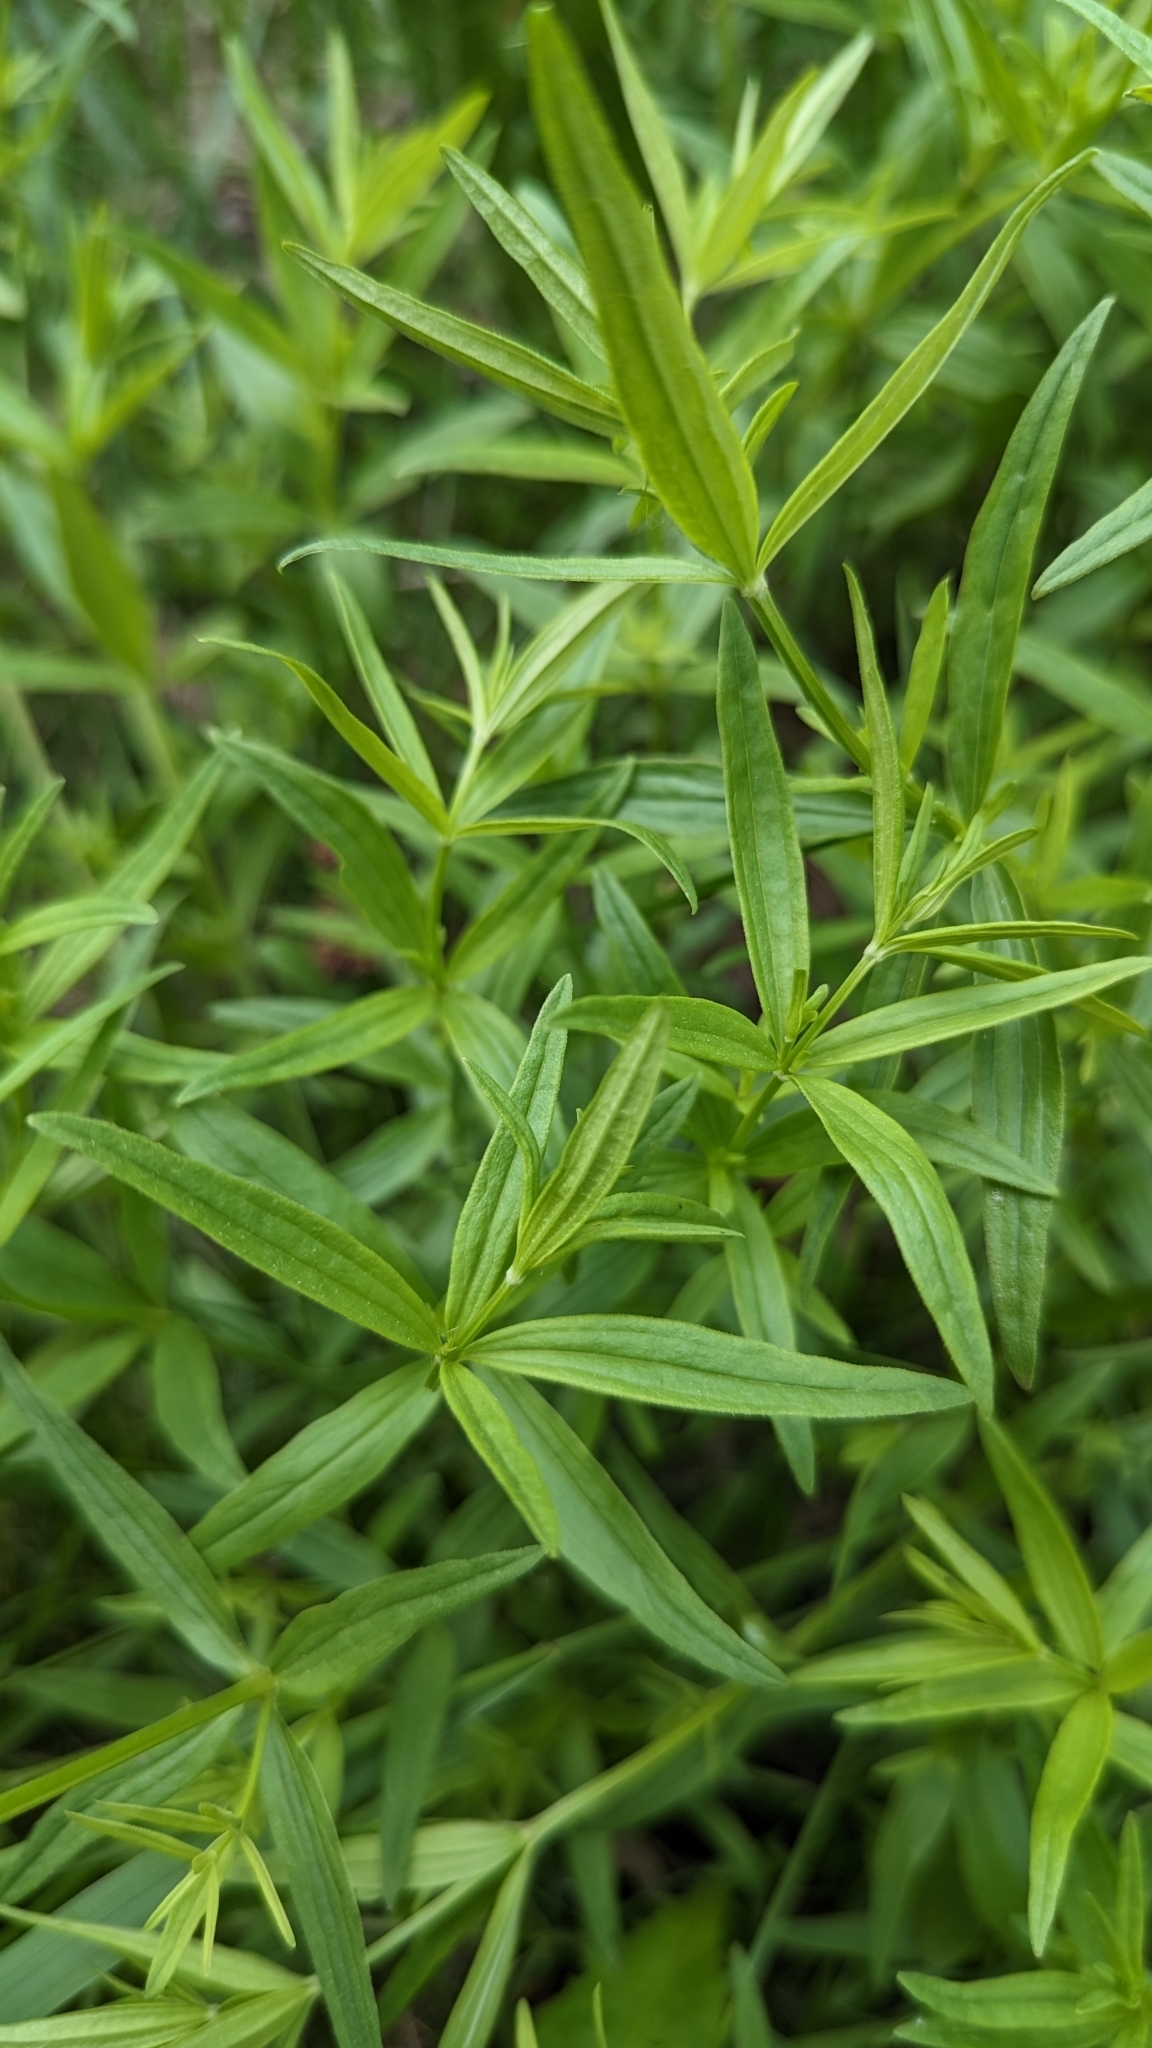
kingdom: Plantae
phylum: Tracheophyta
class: Magnoliopsida
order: Gentianales
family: Rubiaceae
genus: Galium
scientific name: Galium boreale
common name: Northern bedstraw
